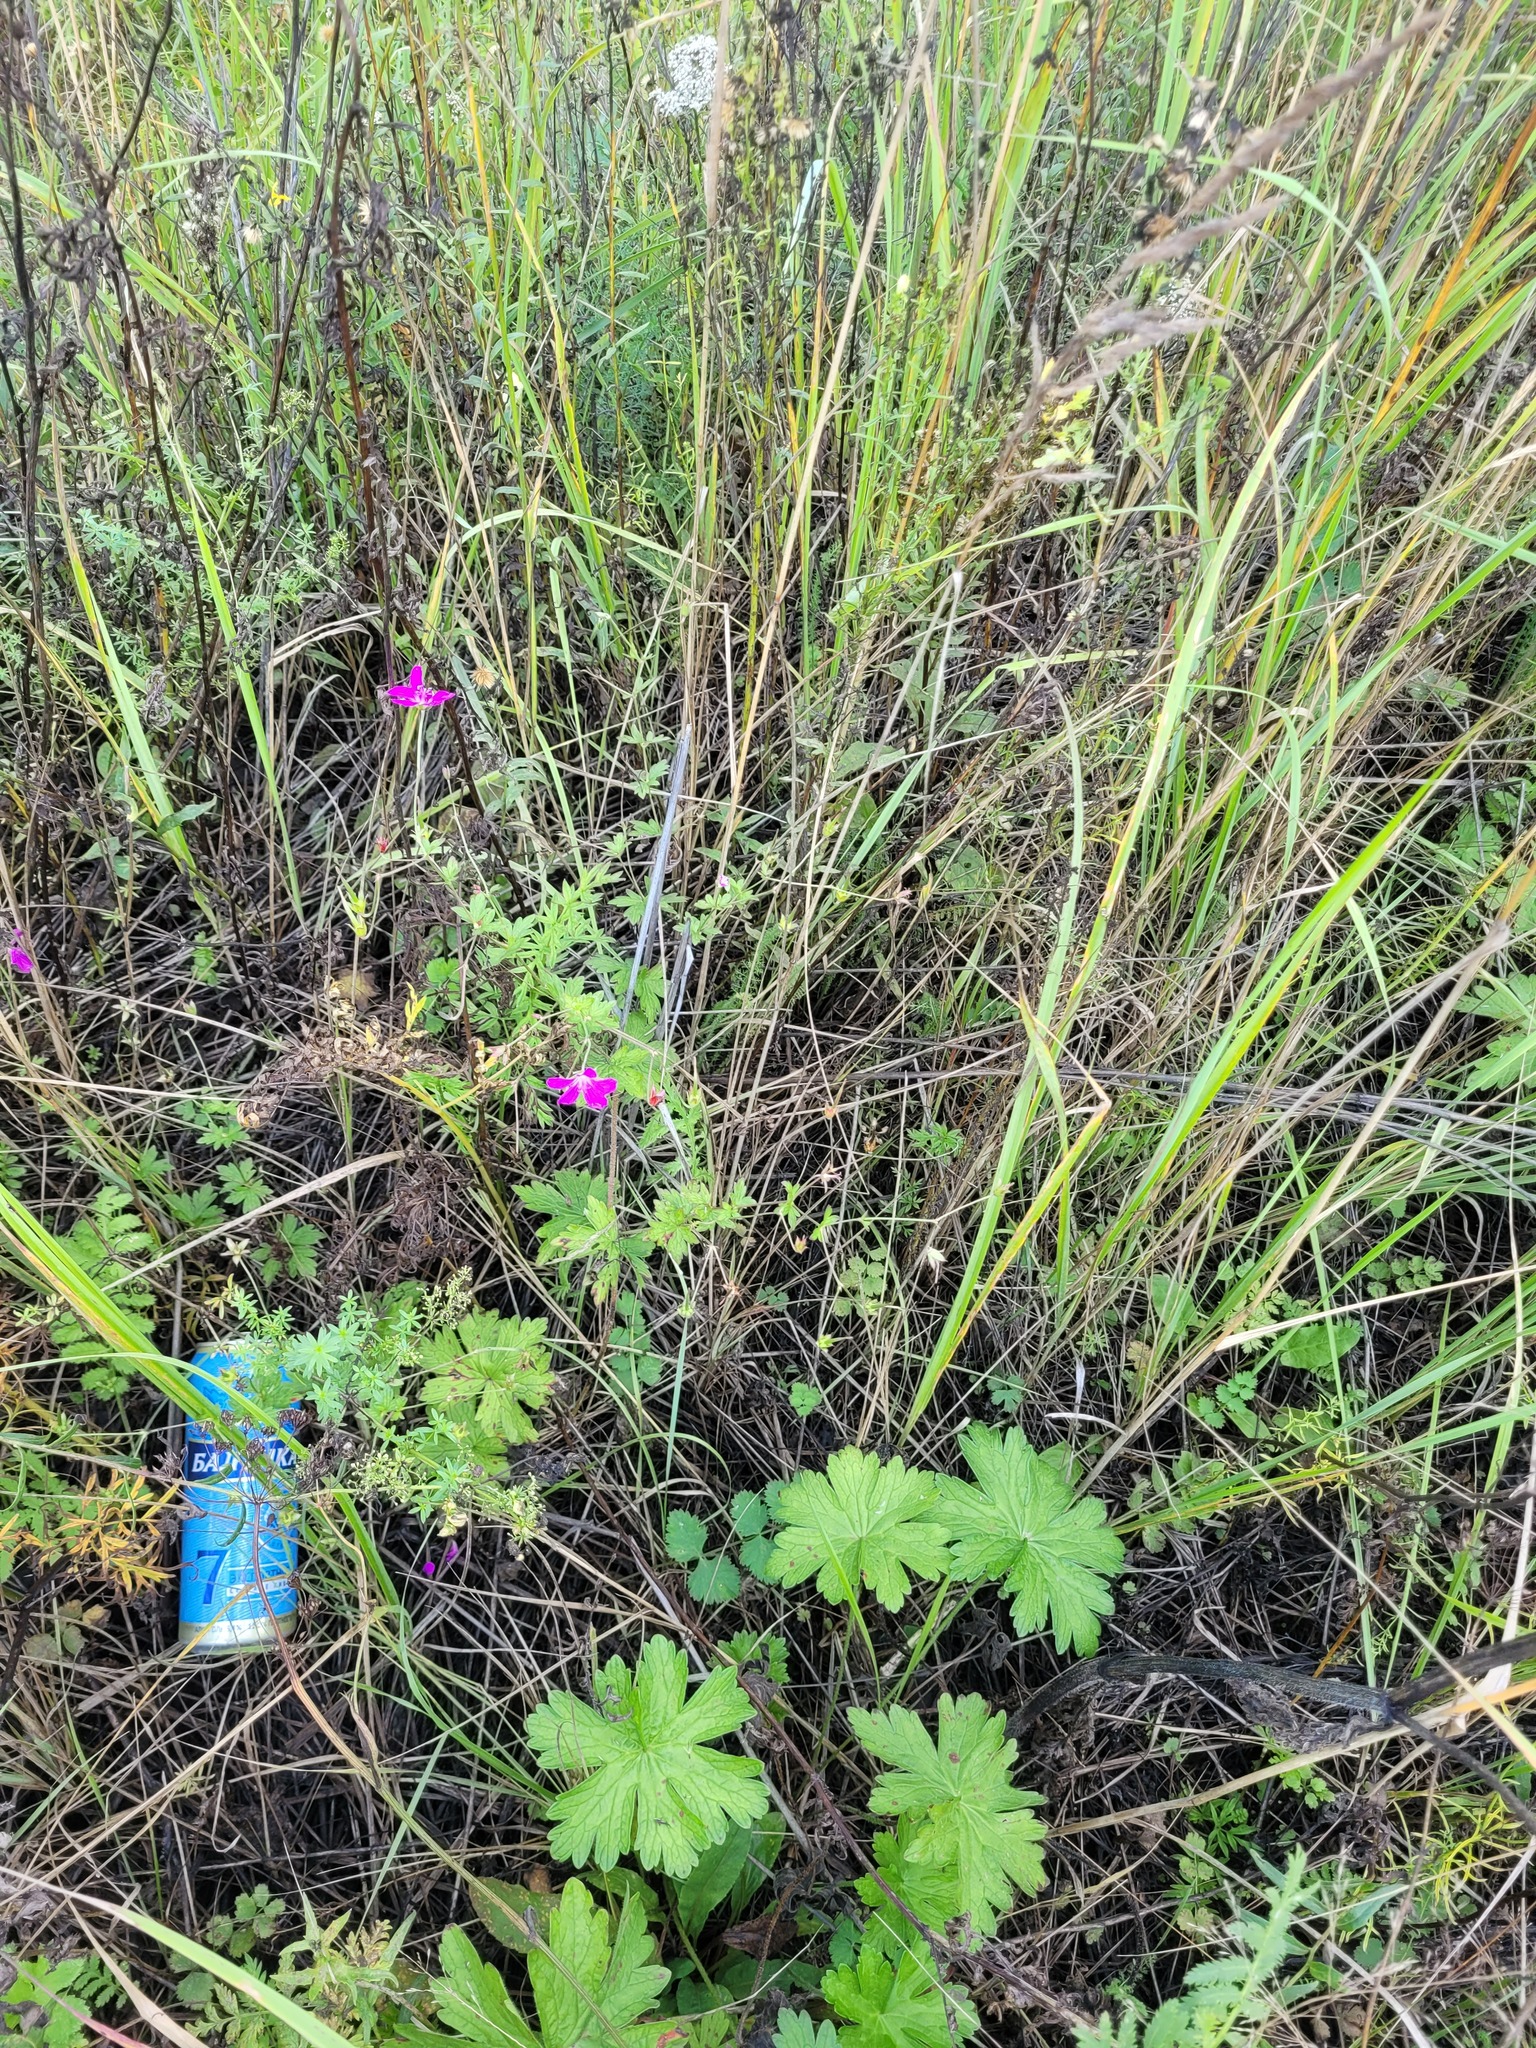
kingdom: Plantae
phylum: Tracheophyta
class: Magnoliopsida
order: Geraniales
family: Geraniaceae
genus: Geranium
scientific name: Geranium palustre
